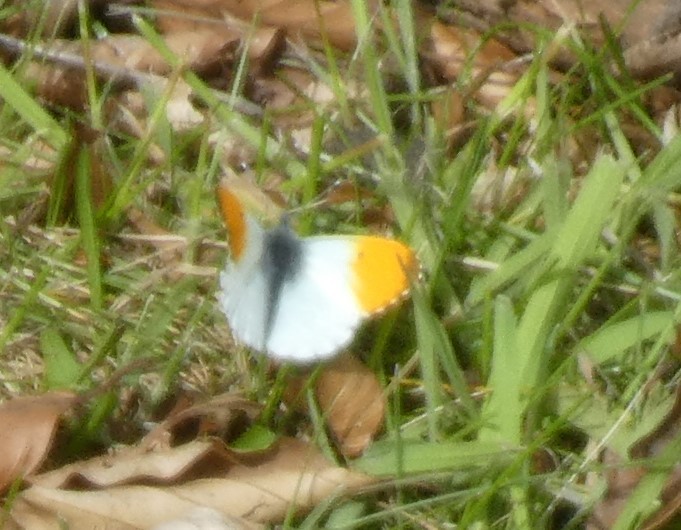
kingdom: Animalia
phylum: Arthropoda
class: Insecta
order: Lepidoptera
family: Pieridae
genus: Anthocharis
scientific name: Anthocharis cardamines
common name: Orange-tip
